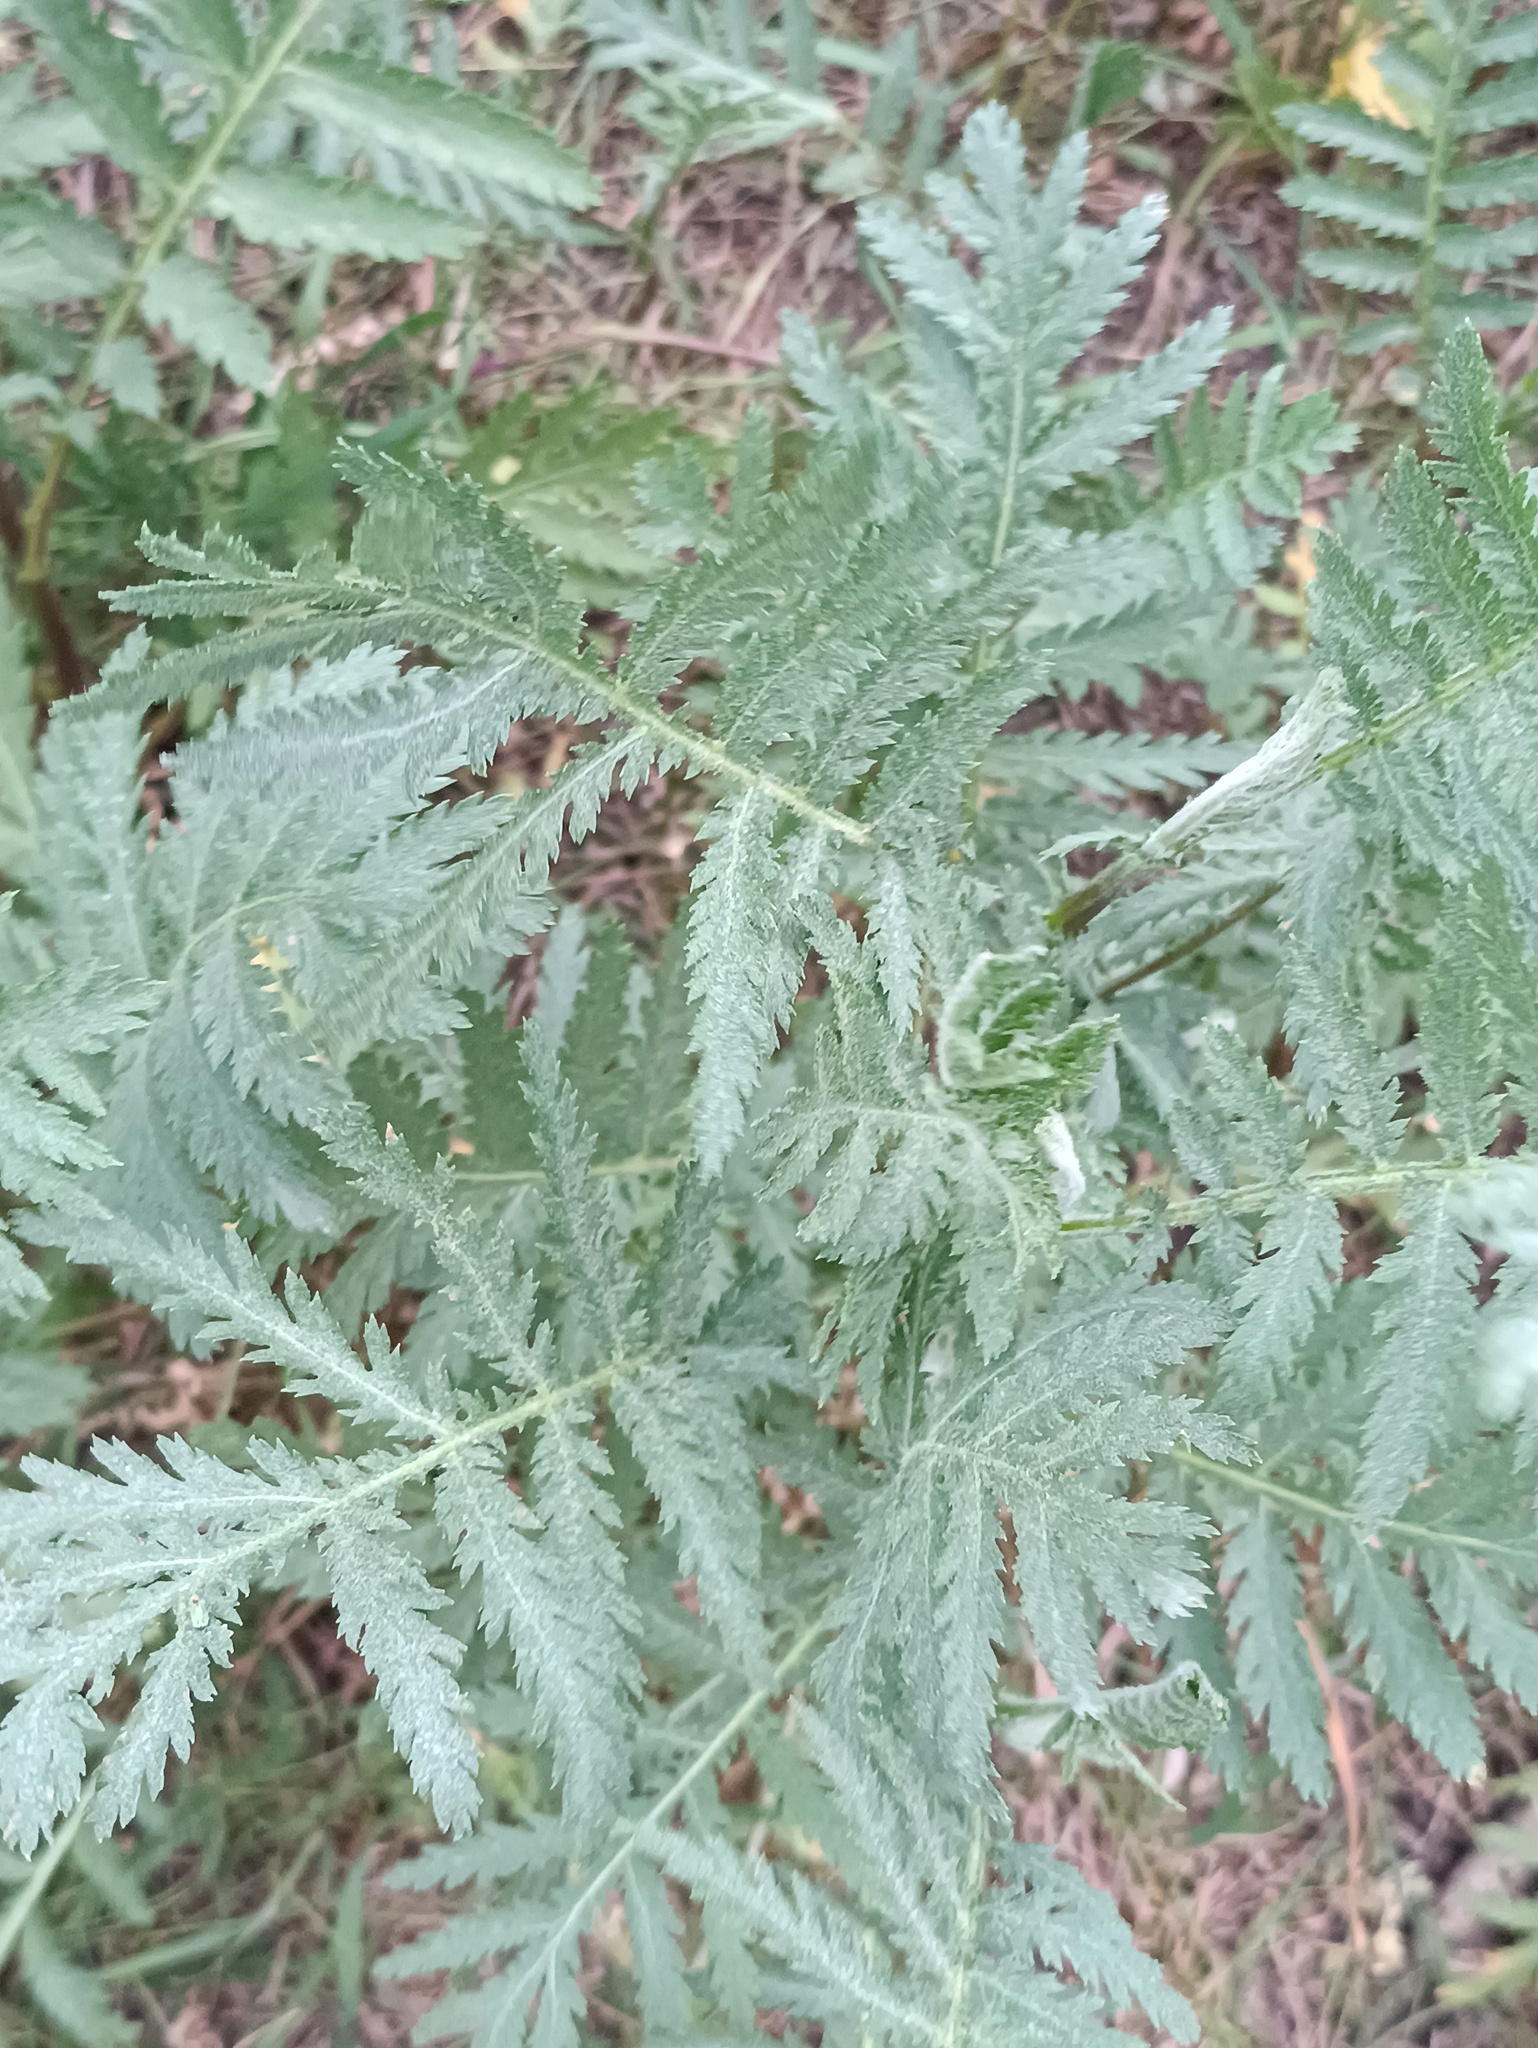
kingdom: Plantae
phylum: Tracheophyta
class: Magnoliopsida
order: Asterales
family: Asteraceae
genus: Tanacetum
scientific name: Tanacetum vulgare
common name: Common tansy
